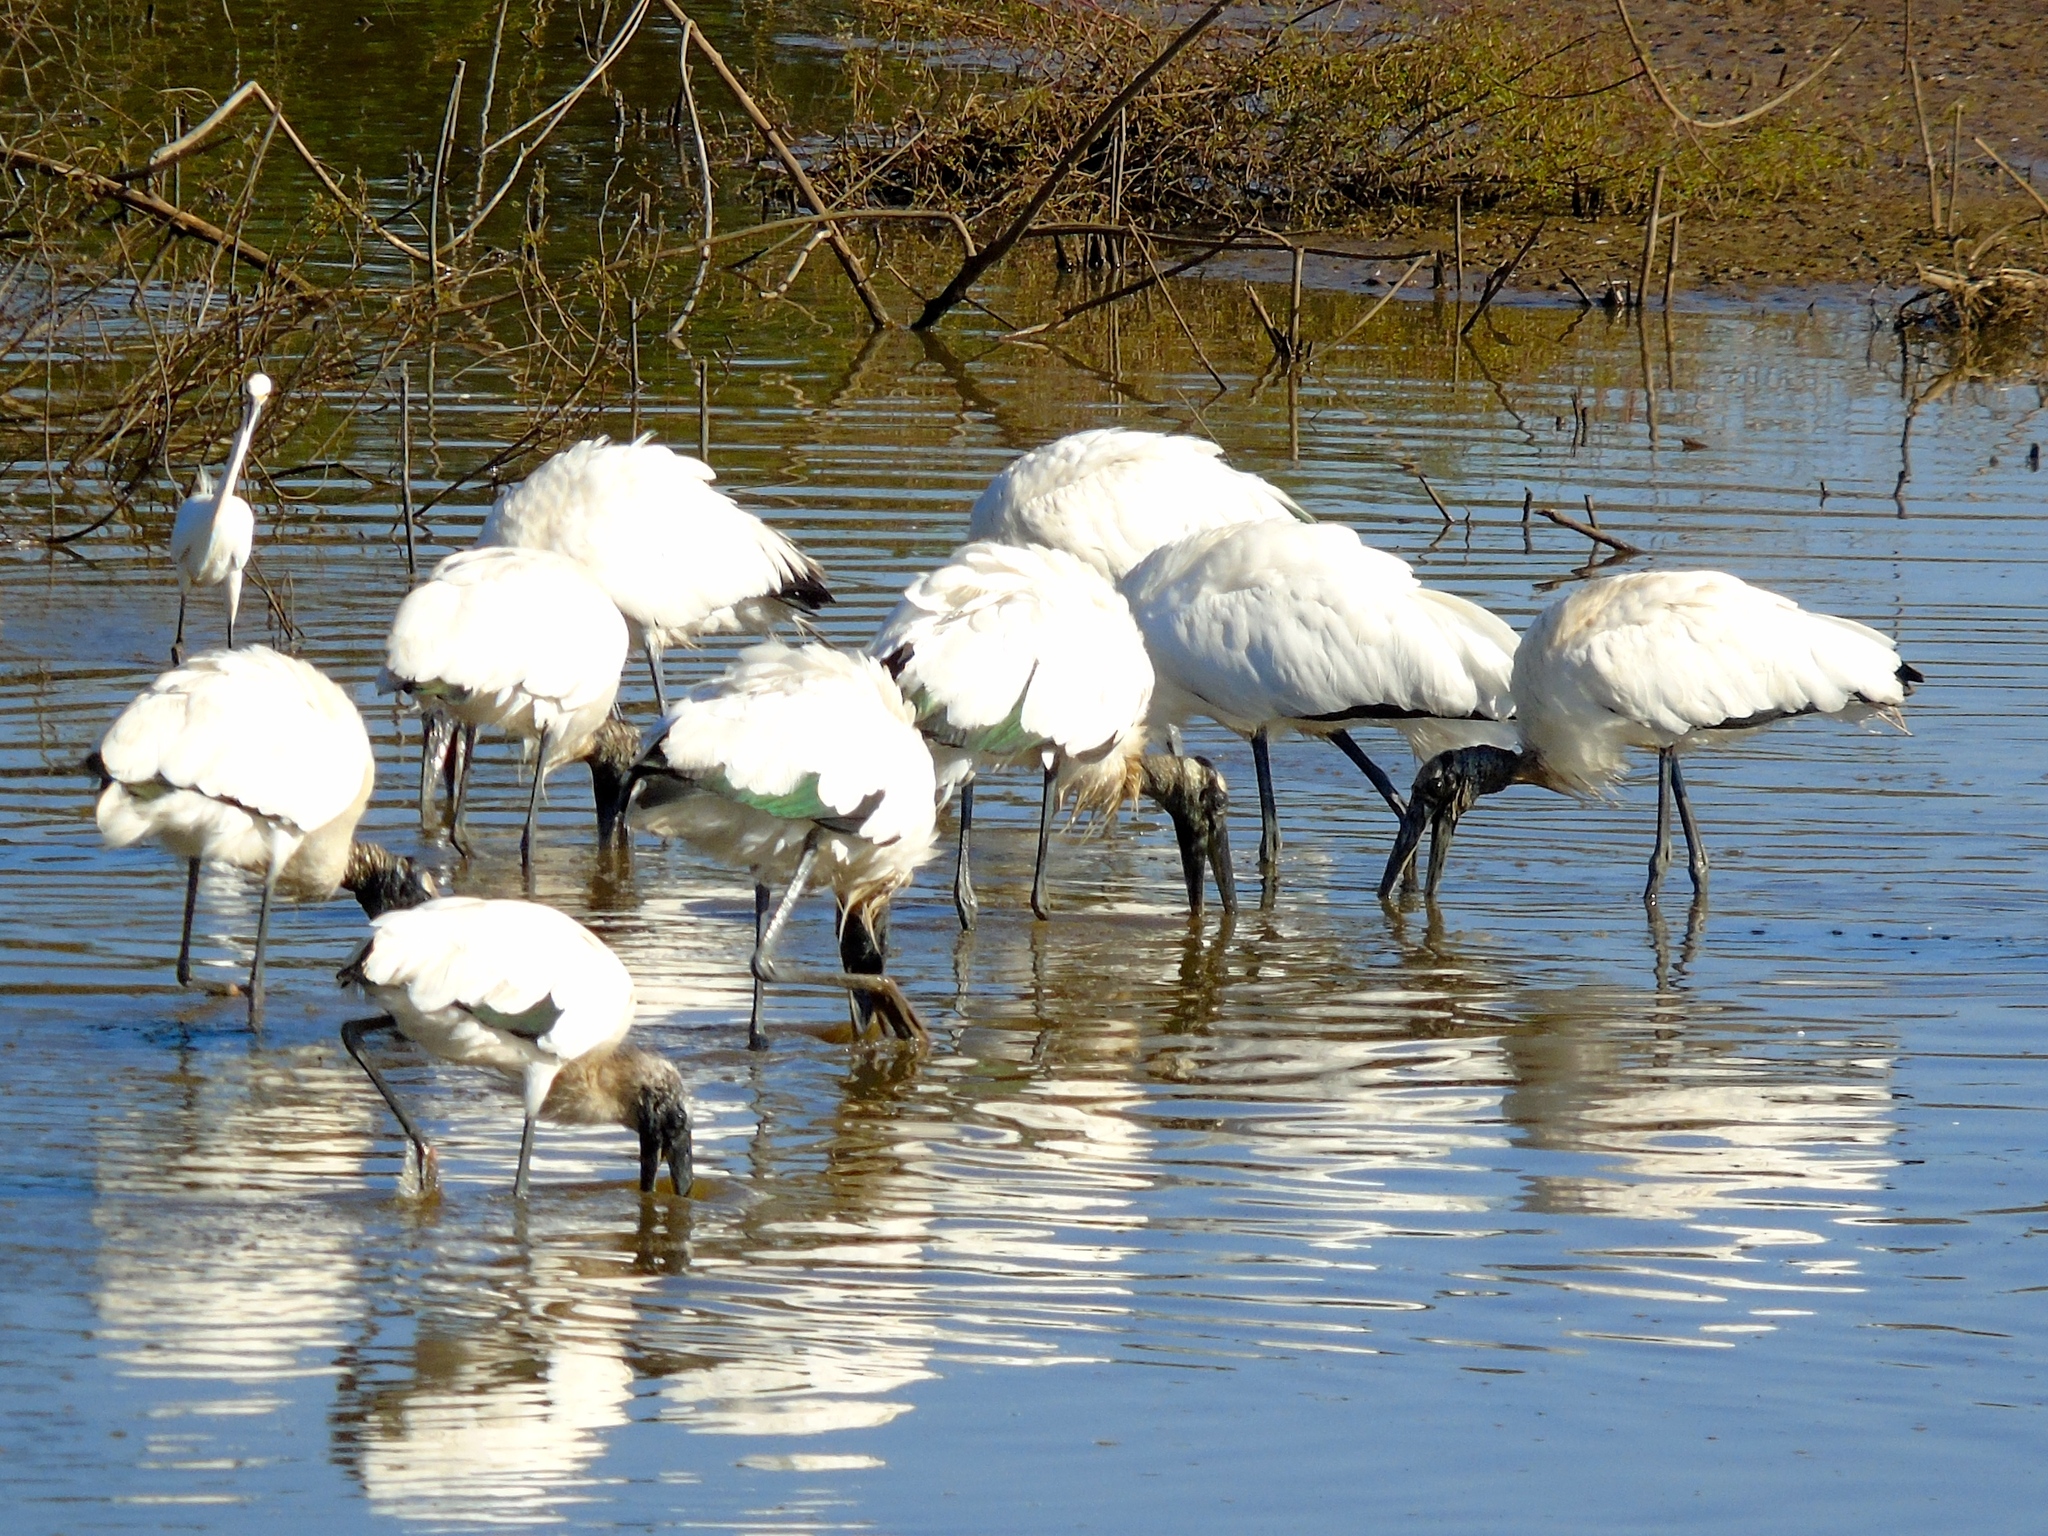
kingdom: Animalia
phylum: Chordata
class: Aves
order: Ciconiiformes
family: Ciconiidae
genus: Mycteria
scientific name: Mycteria americana
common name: Wood stork
